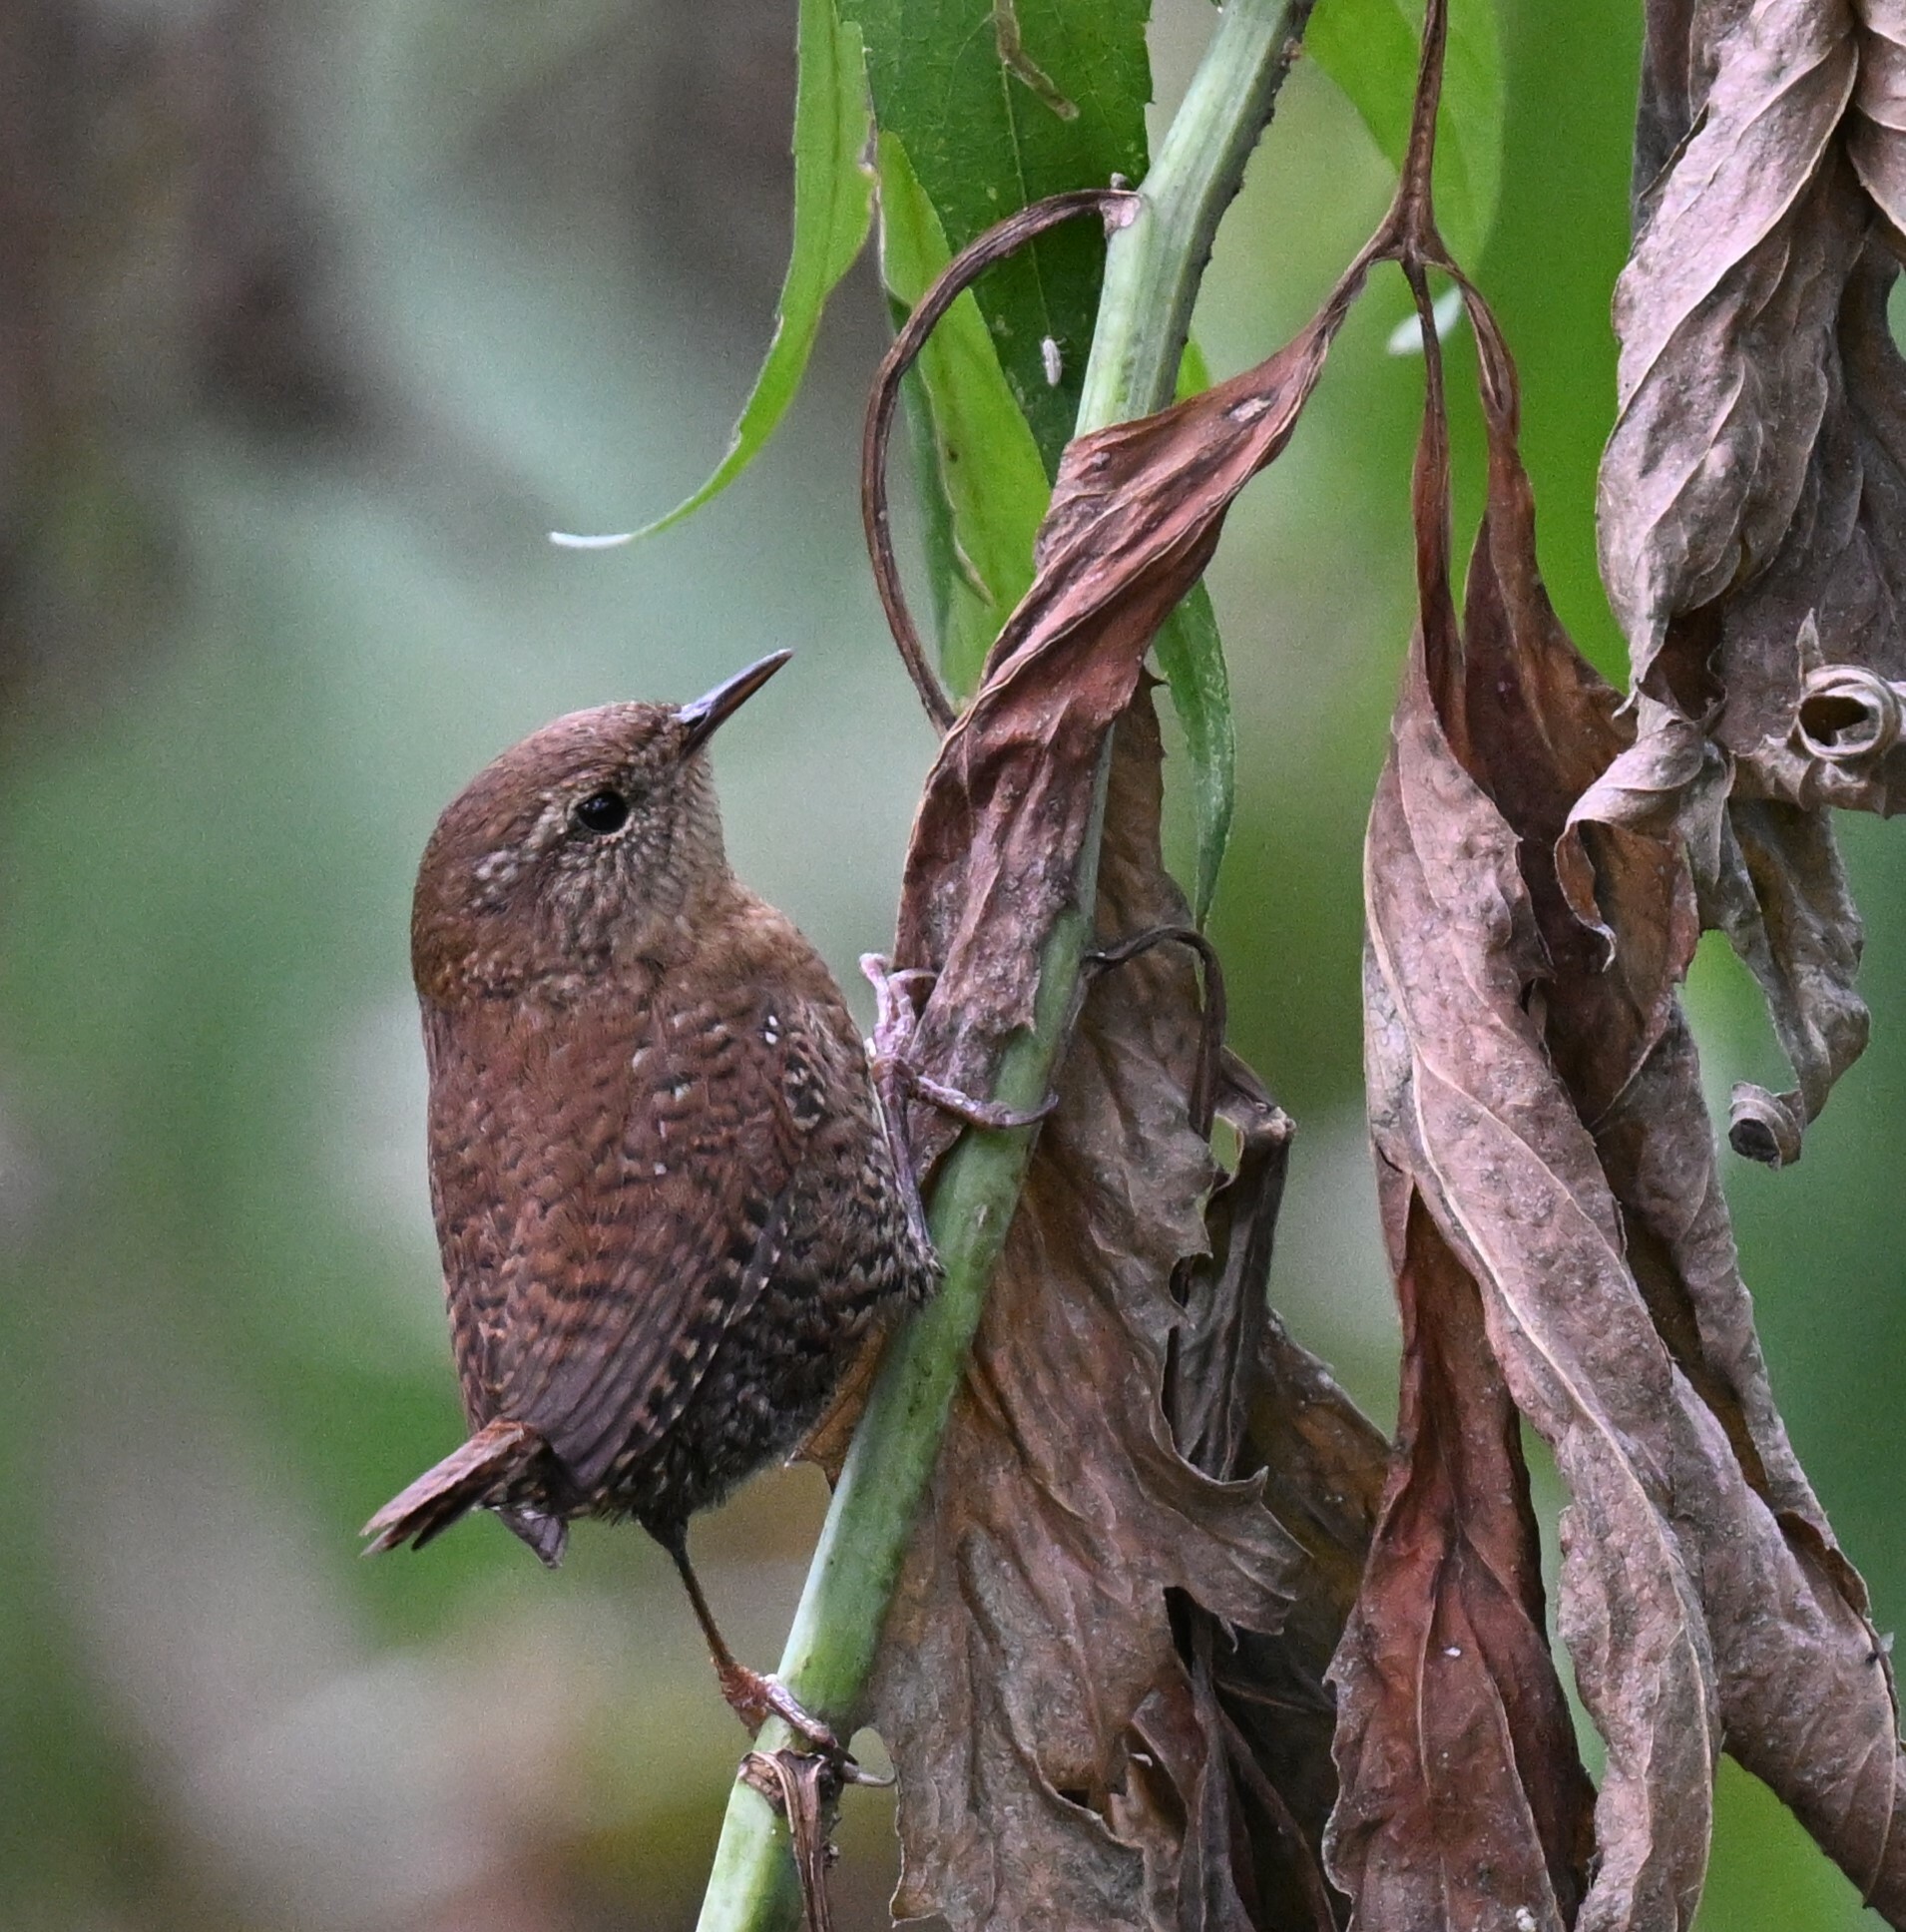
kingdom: Animalia
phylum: Chordata
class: Aves
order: Passeriformes
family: Troglodytidae
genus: Troglodytes
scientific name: Troglodytes hiemalis
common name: Winter wren
